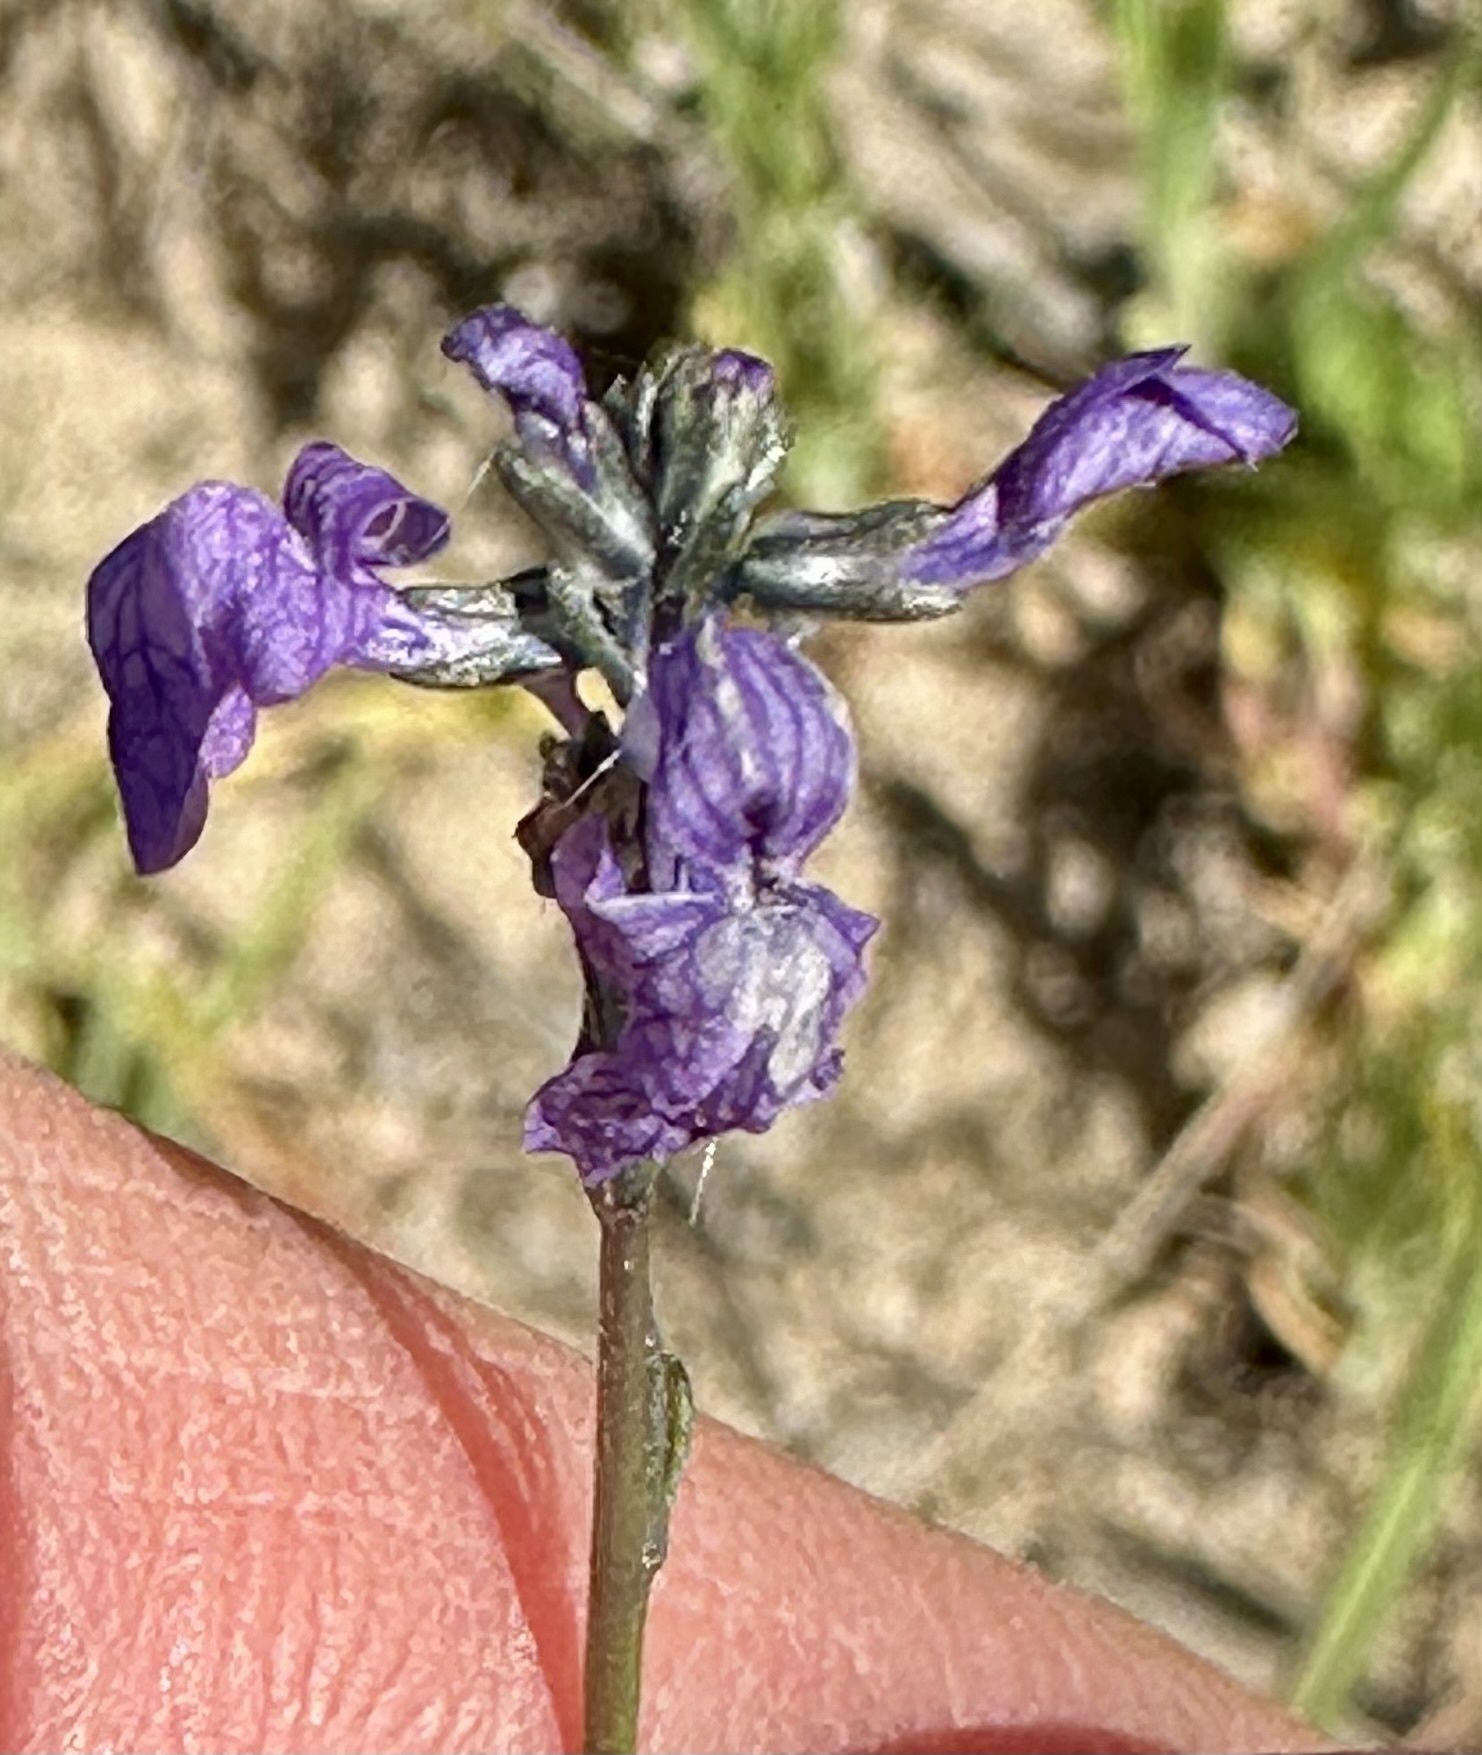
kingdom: Plantae
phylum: Tracheophyta
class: Magnoliopsida
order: Lamiales
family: Plantaginaceae
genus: Nuttallanthus
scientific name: Nuttallanthus texanus
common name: Texas toadflax
